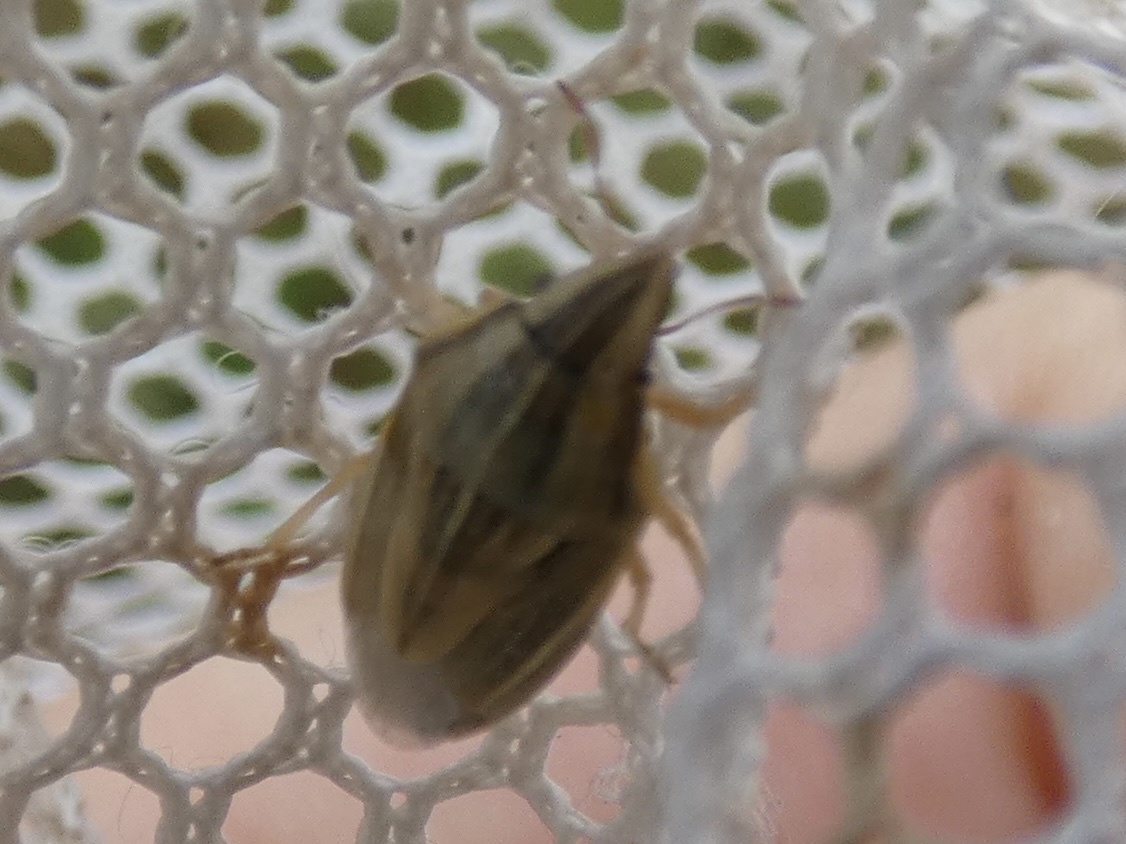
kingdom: Animalia
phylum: Arthropoda
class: Insecta
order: Hemiptera
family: Pentatomidae
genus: Aelia
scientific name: Aelia acuminata
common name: Bishop's mitre
